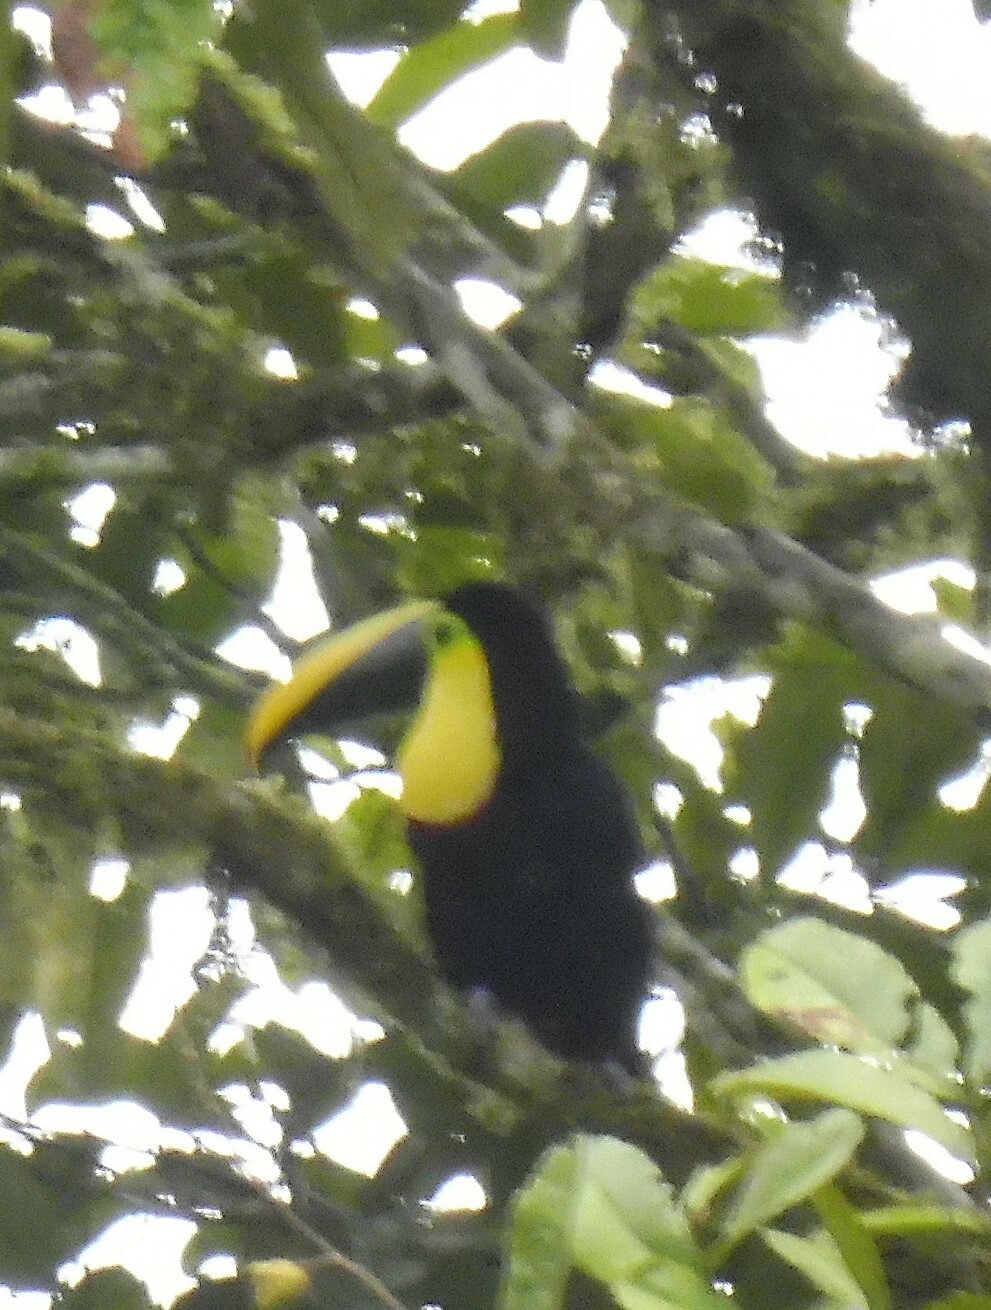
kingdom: Animalia
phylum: Chordata
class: Aves
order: Piciformes
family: Ramphastidae
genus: Ramphastos
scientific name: Ramphastos brevis
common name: Choco toucan
